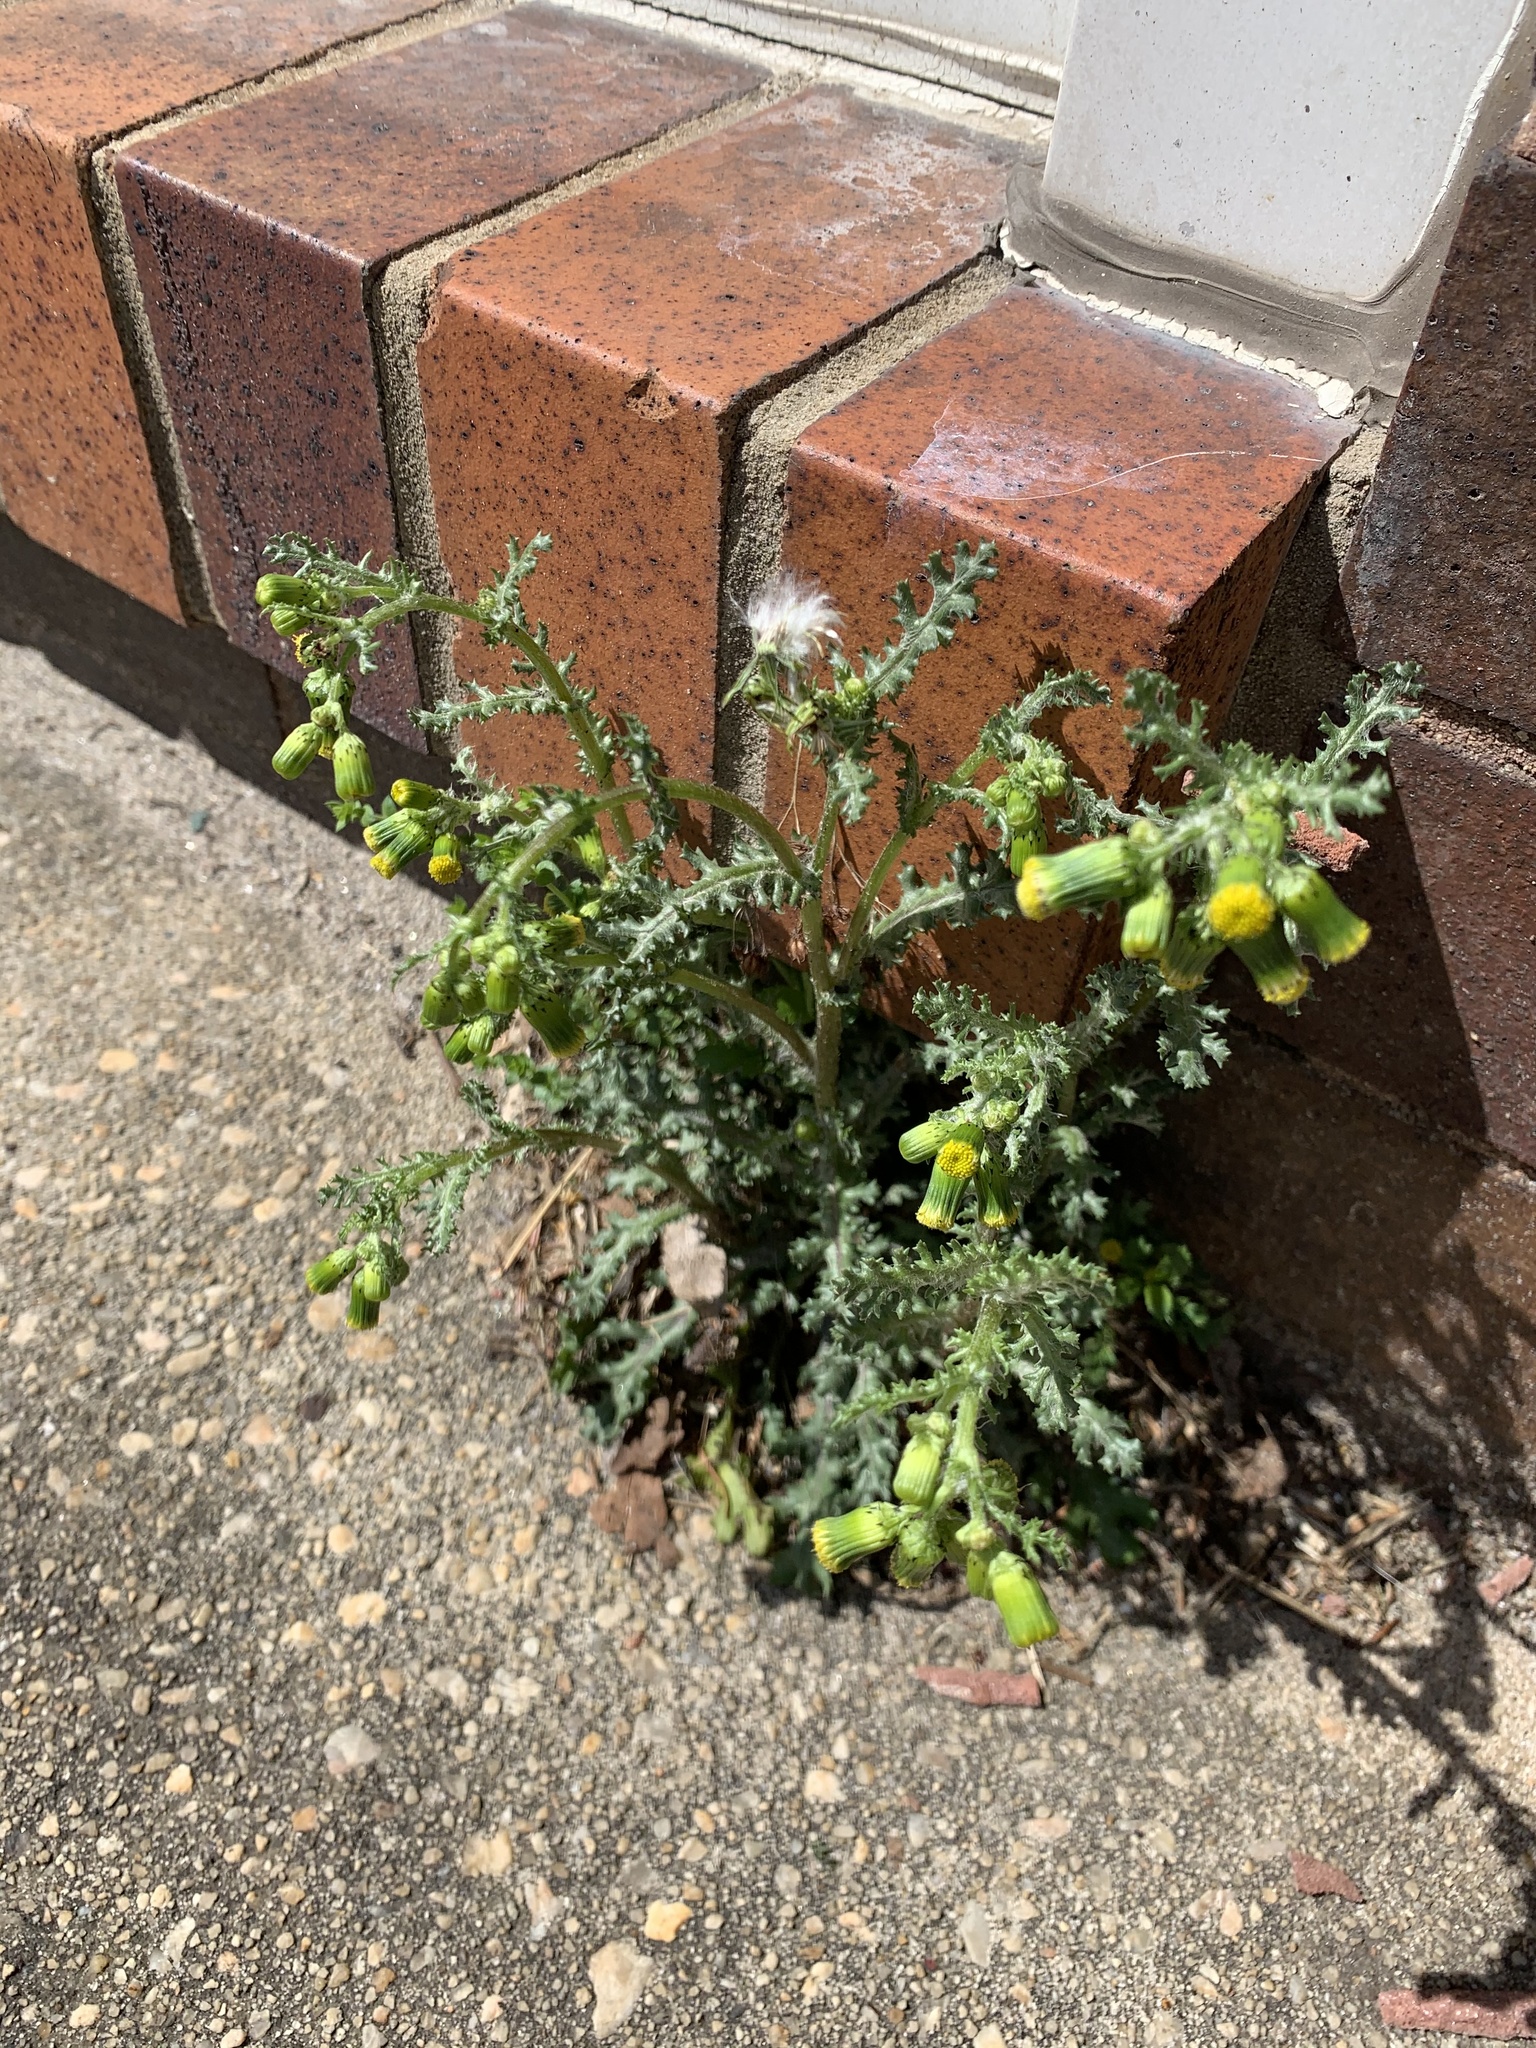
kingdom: Plantae
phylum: Tracheophyta
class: Magnoliopsida
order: Asterales
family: Asteraceae
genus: Senecio
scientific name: Senecio vulgaris
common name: Old-man-in-the-spring
